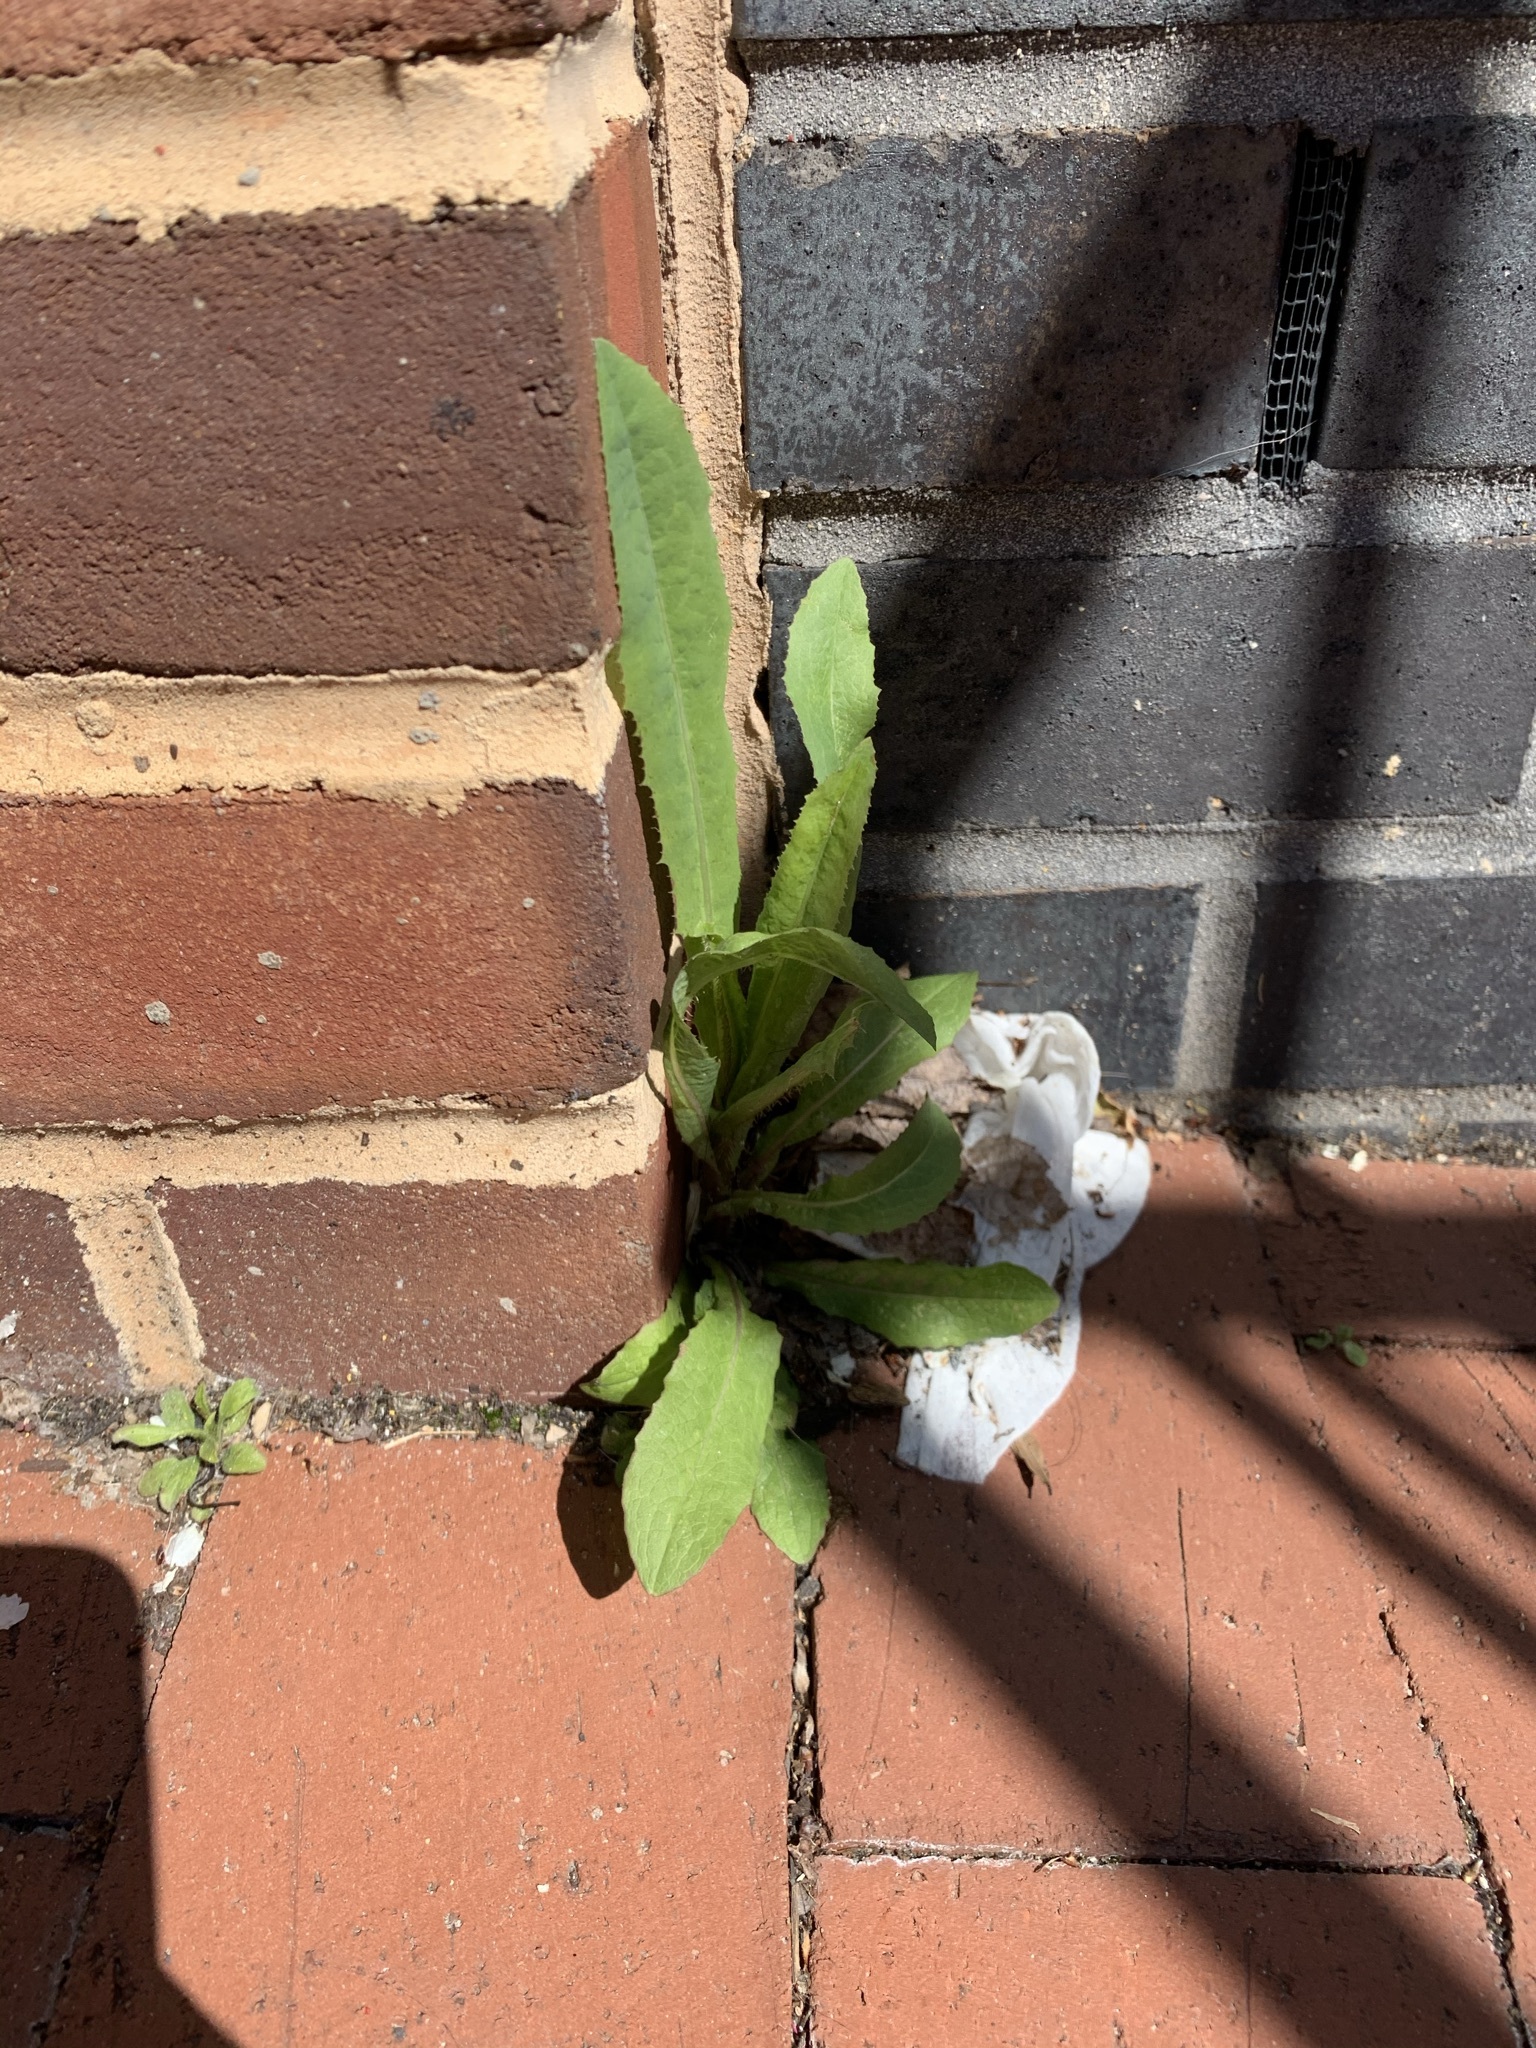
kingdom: Plantae
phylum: Tracheophyta
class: Magnoliopsida
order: Asterales
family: Asteraceae
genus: Lactuca
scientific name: Lactuca serriola
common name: Prickly lettuce
